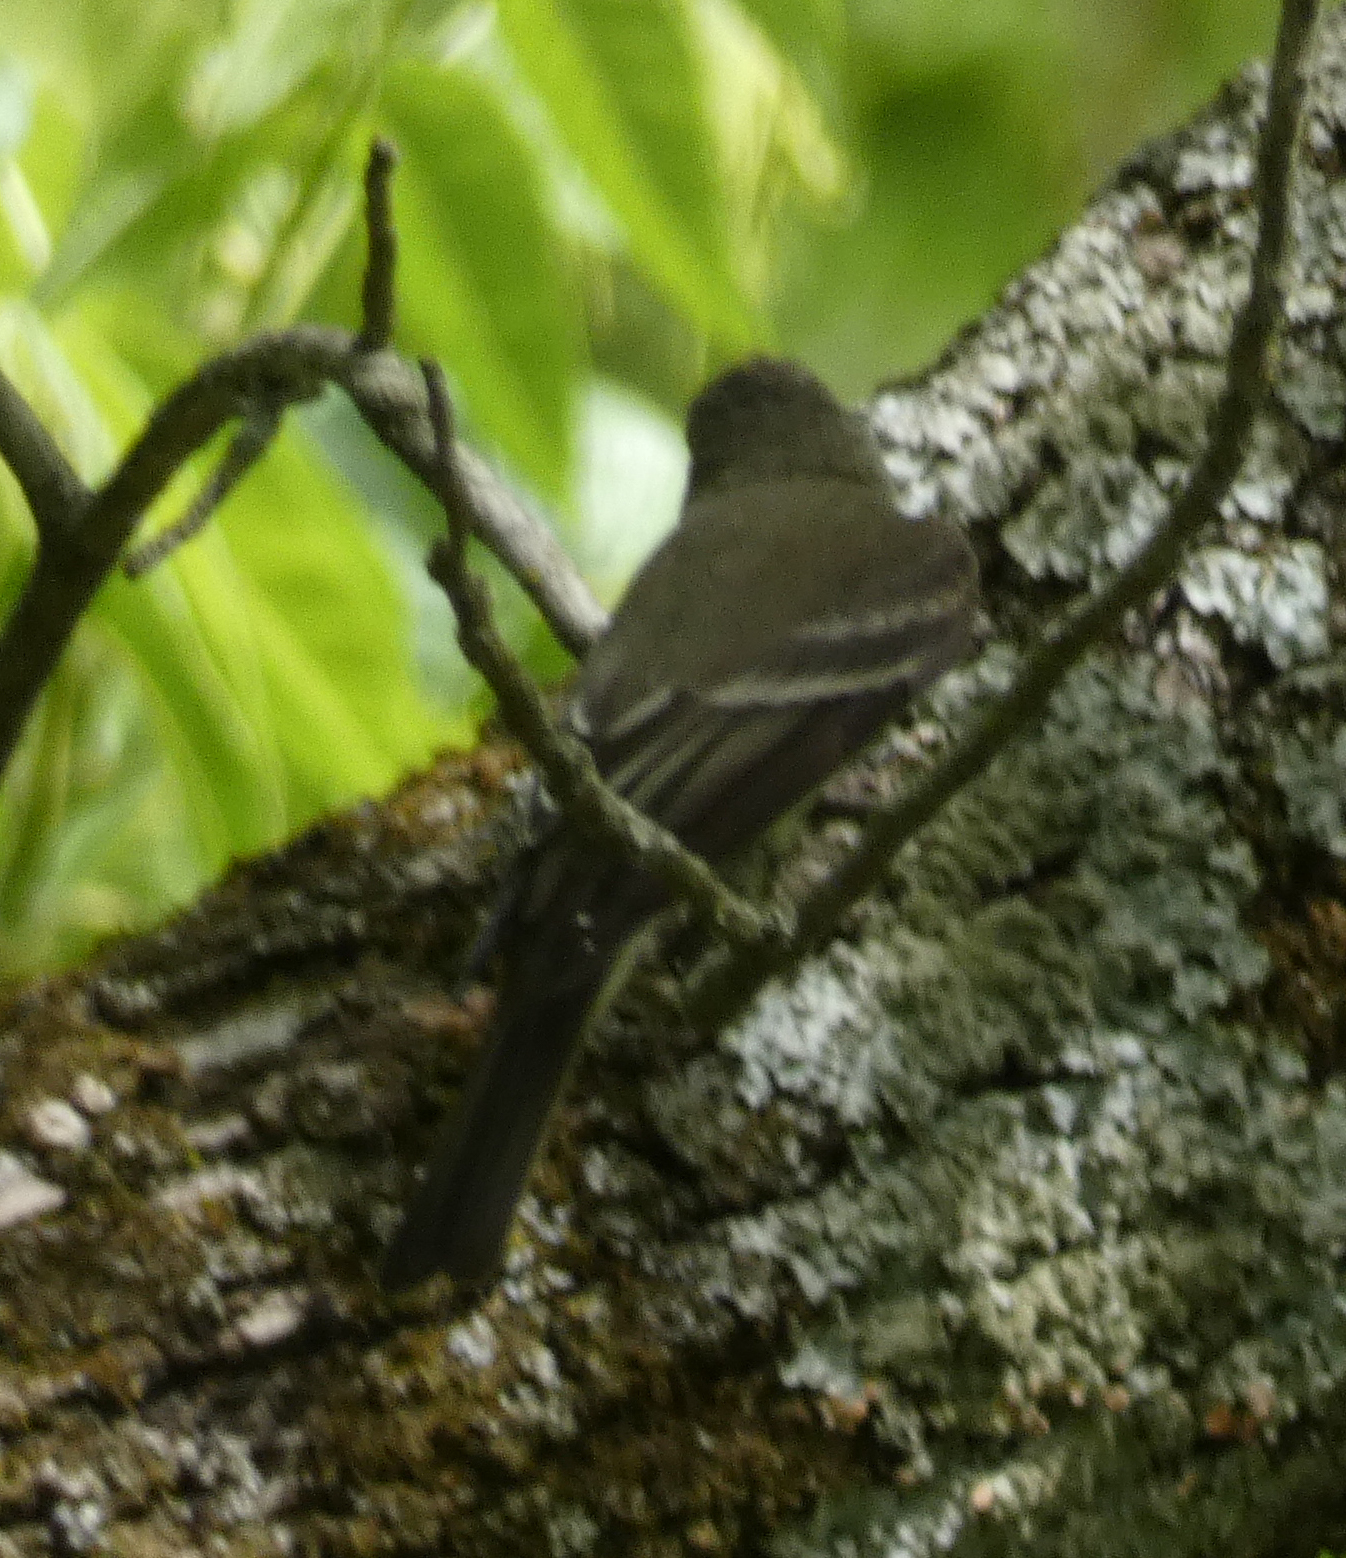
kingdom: Animalia
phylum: Chordata
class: Aves
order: Passeriformes
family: Tyrannidae
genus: Contopus
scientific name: Contopus virens
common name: Eastern wood-pewee
